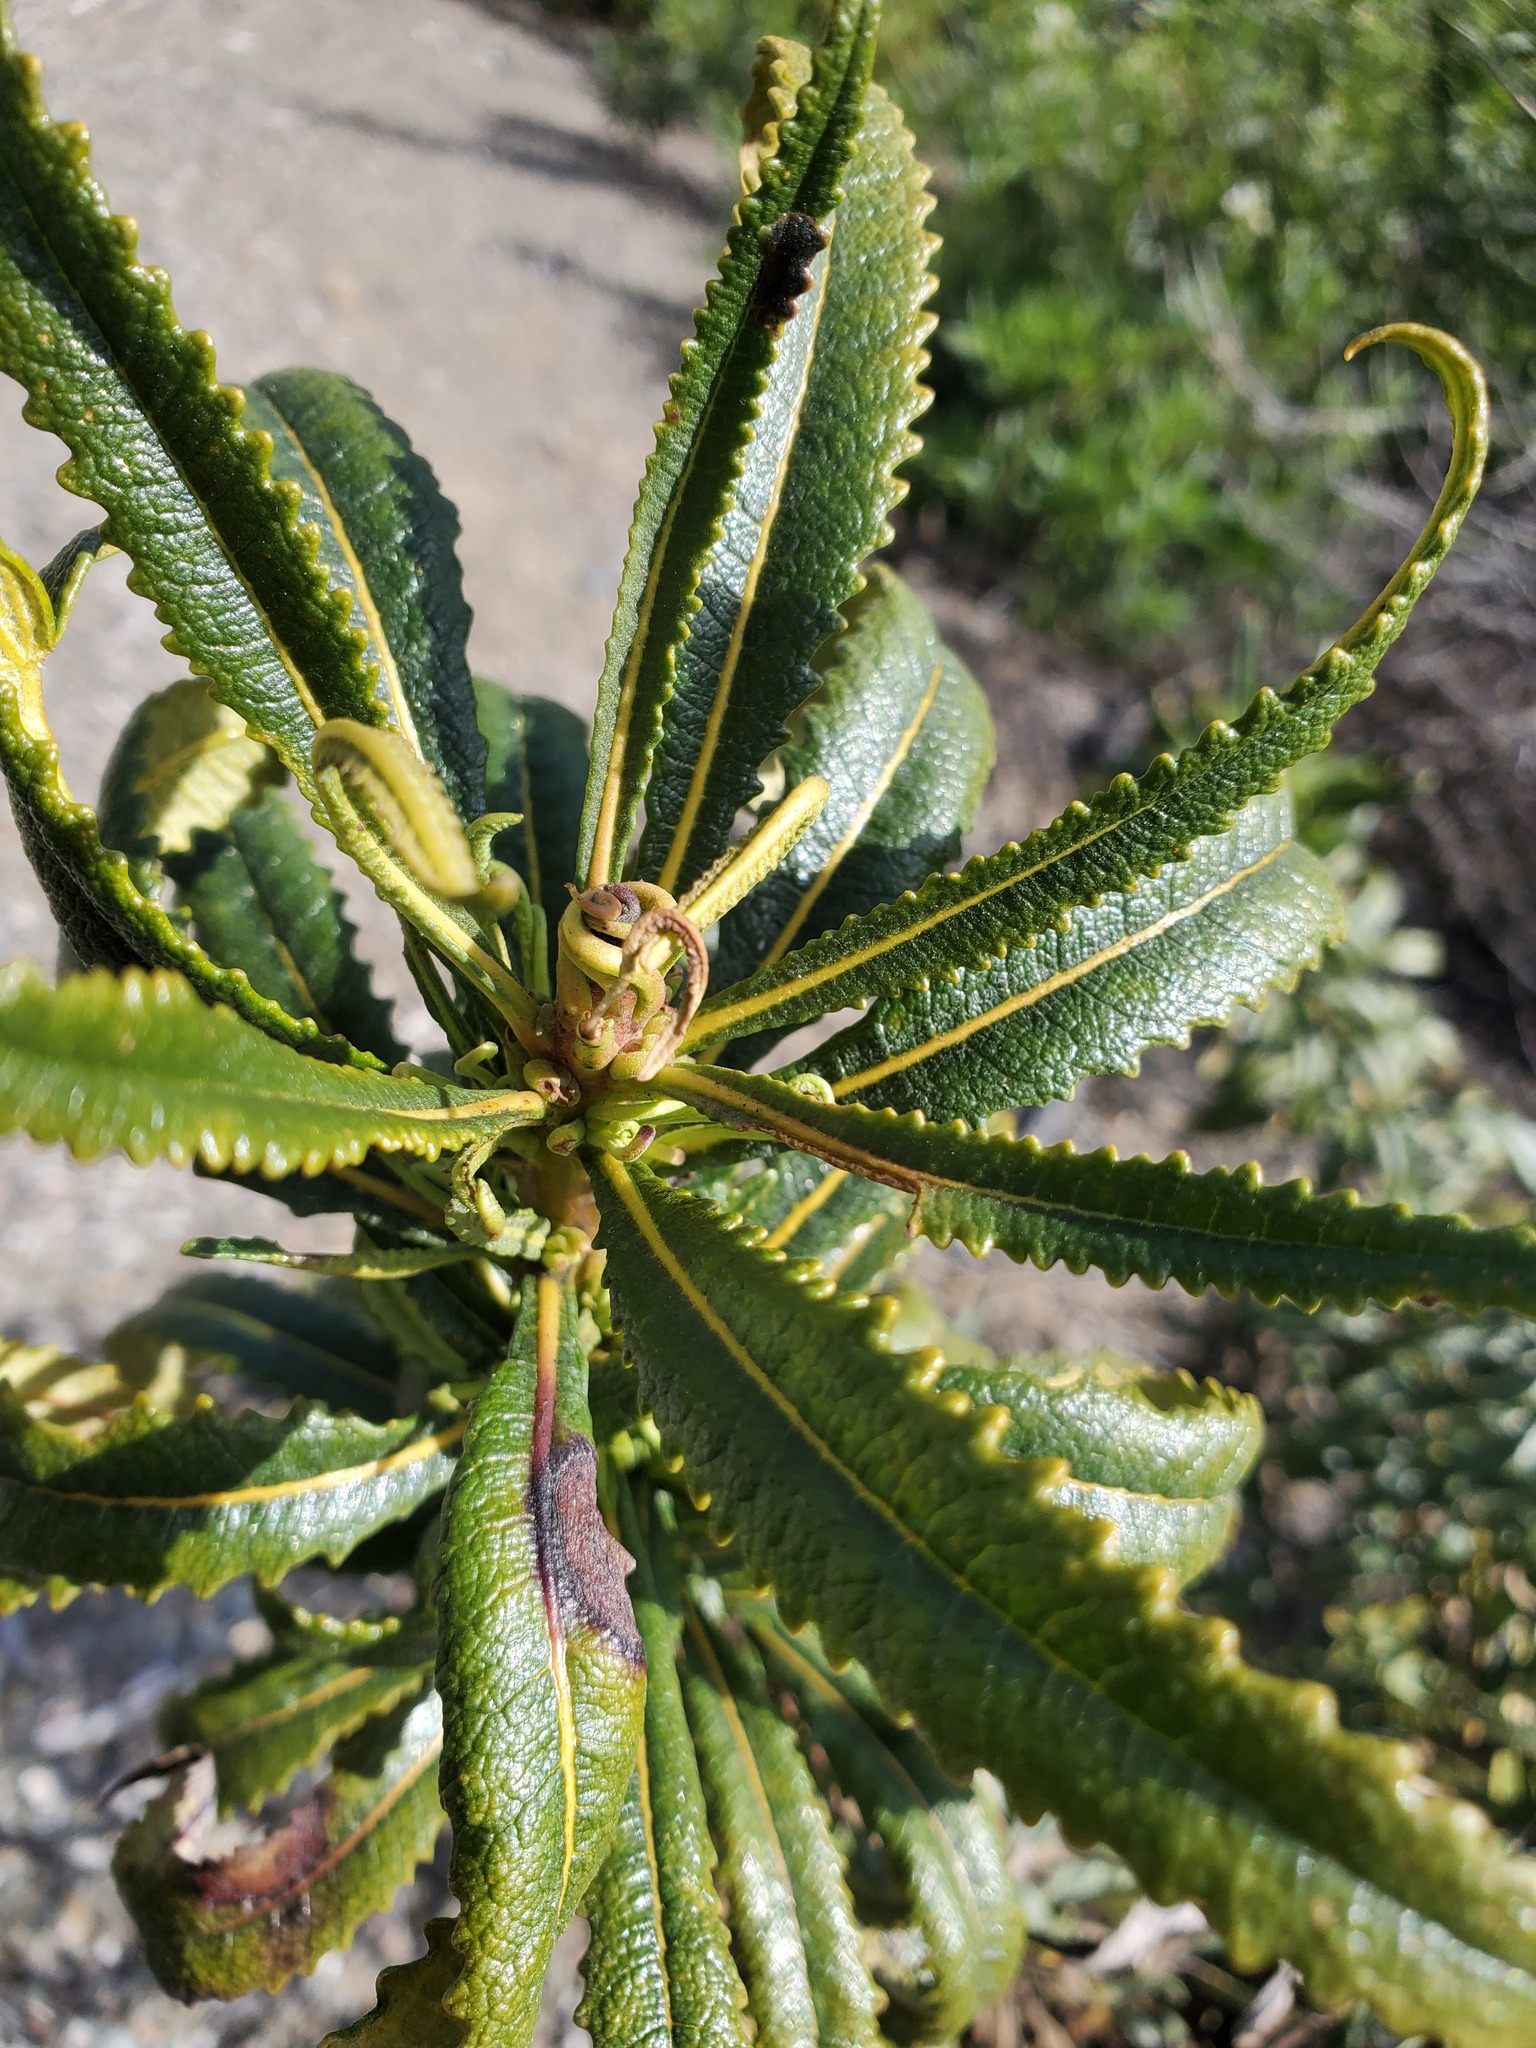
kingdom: Plantae
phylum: Tracheophyta
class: Magnoliopsida
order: Boraginales
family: Namaceae
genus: Eriodictyon
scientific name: Eriodictyon californicum
